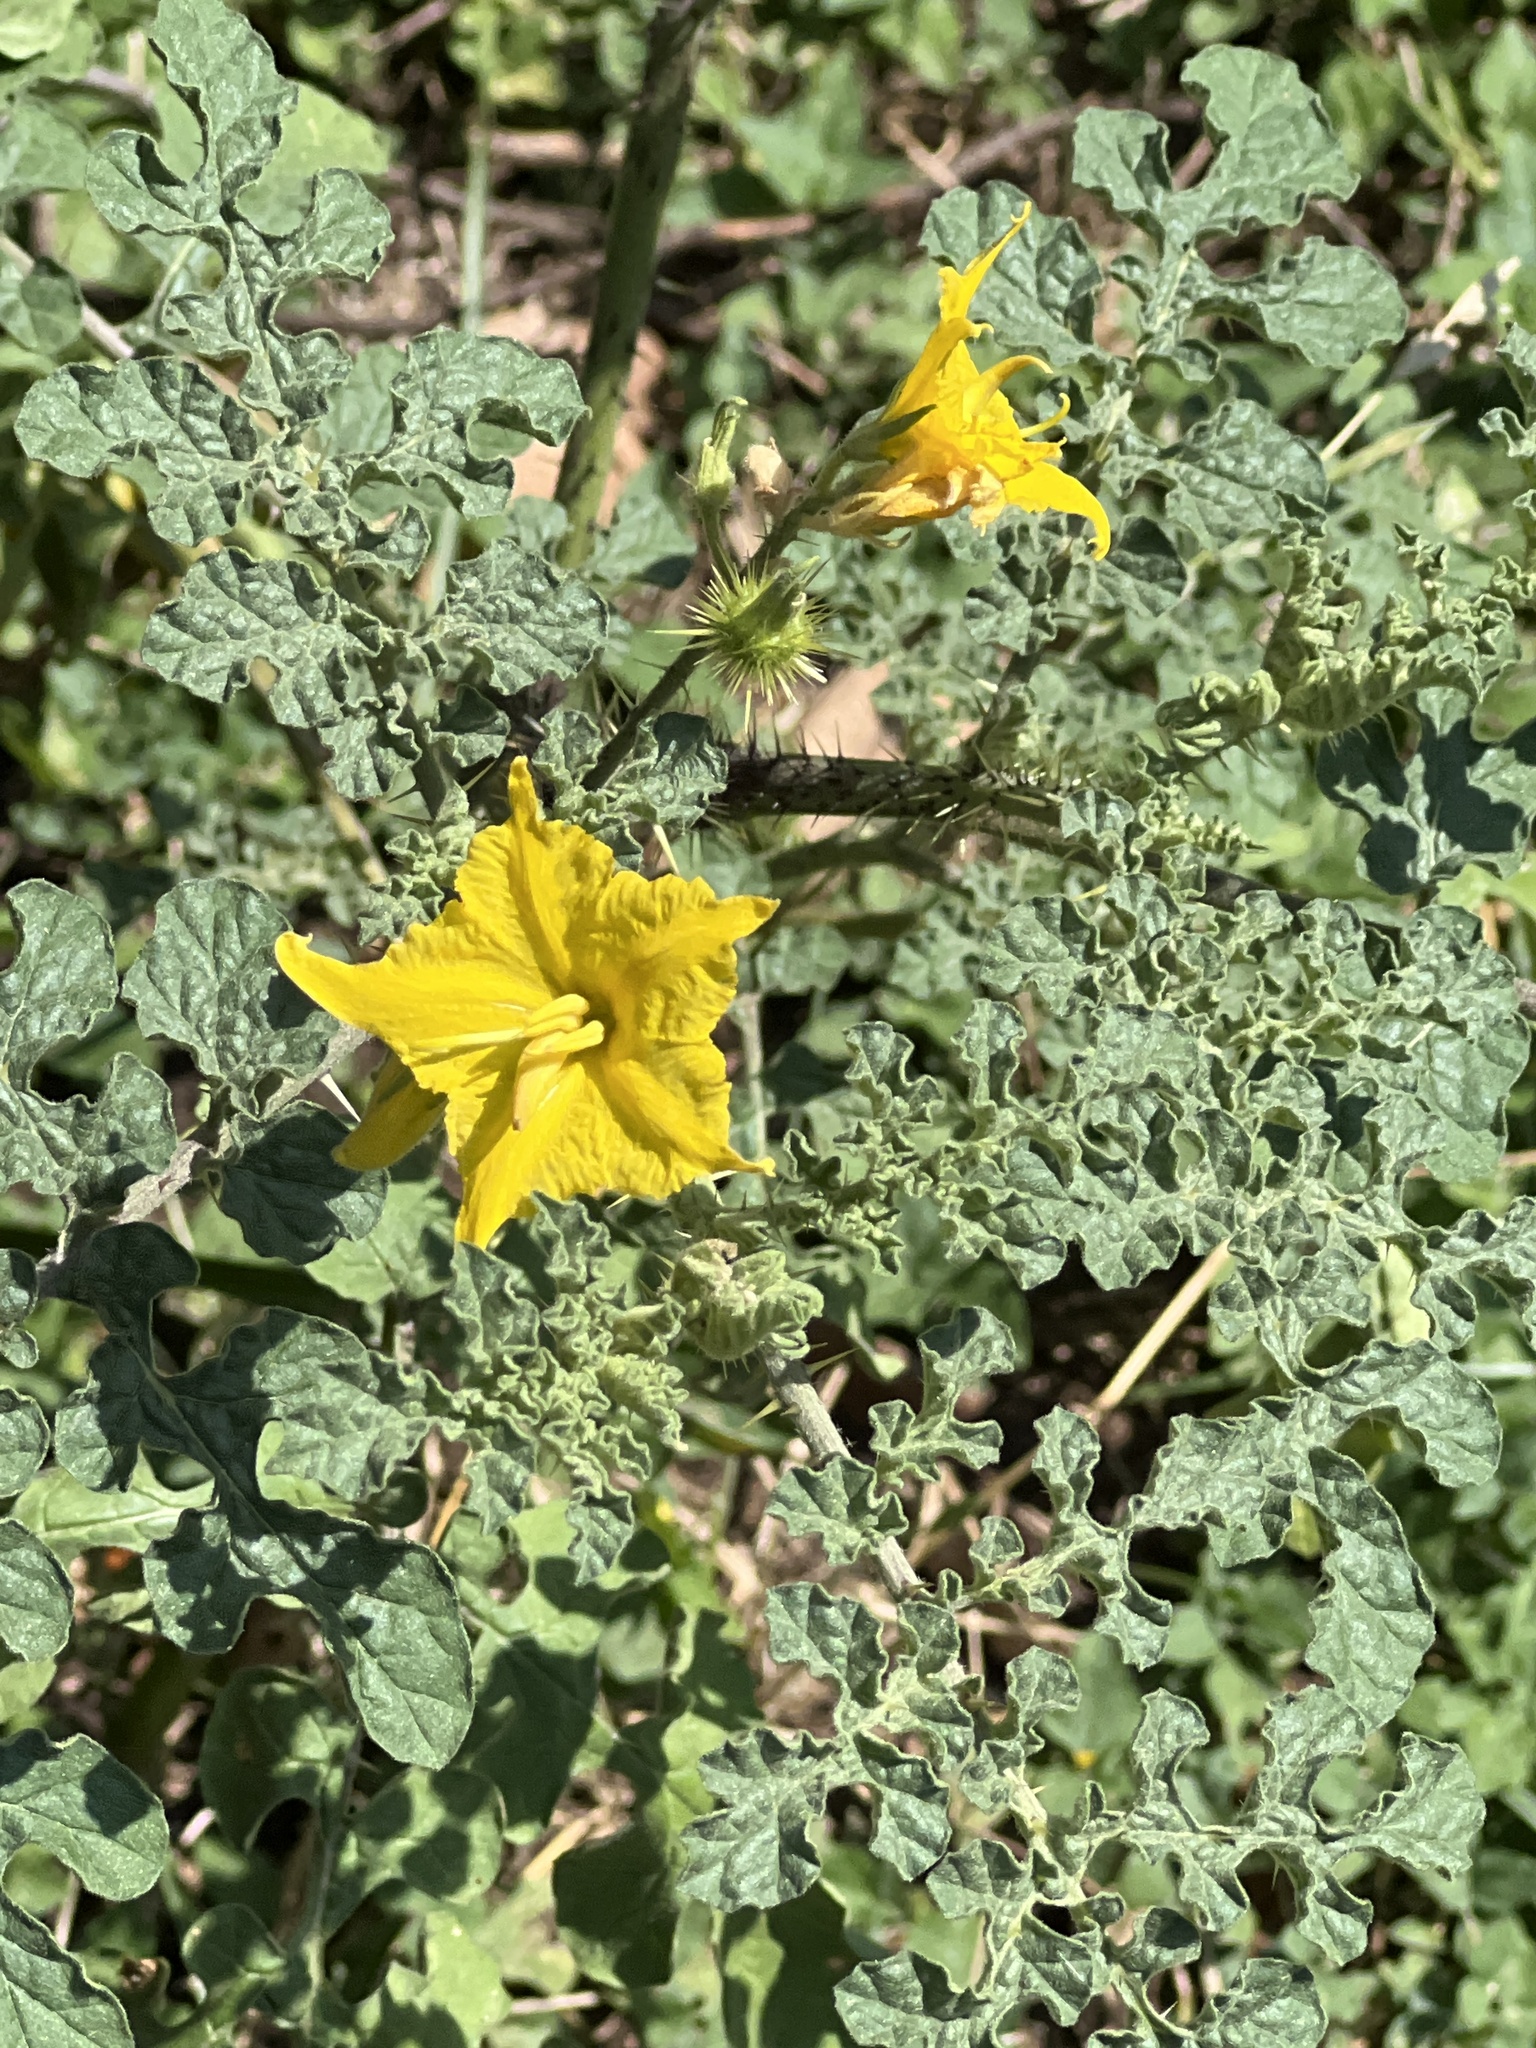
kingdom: Plantae
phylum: Tracheophyta
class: Magnoliopsida
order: Solanales
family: Solanaceae
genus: Solanum
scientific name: Solanum angustifolium
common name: Buffalobur nightshade
